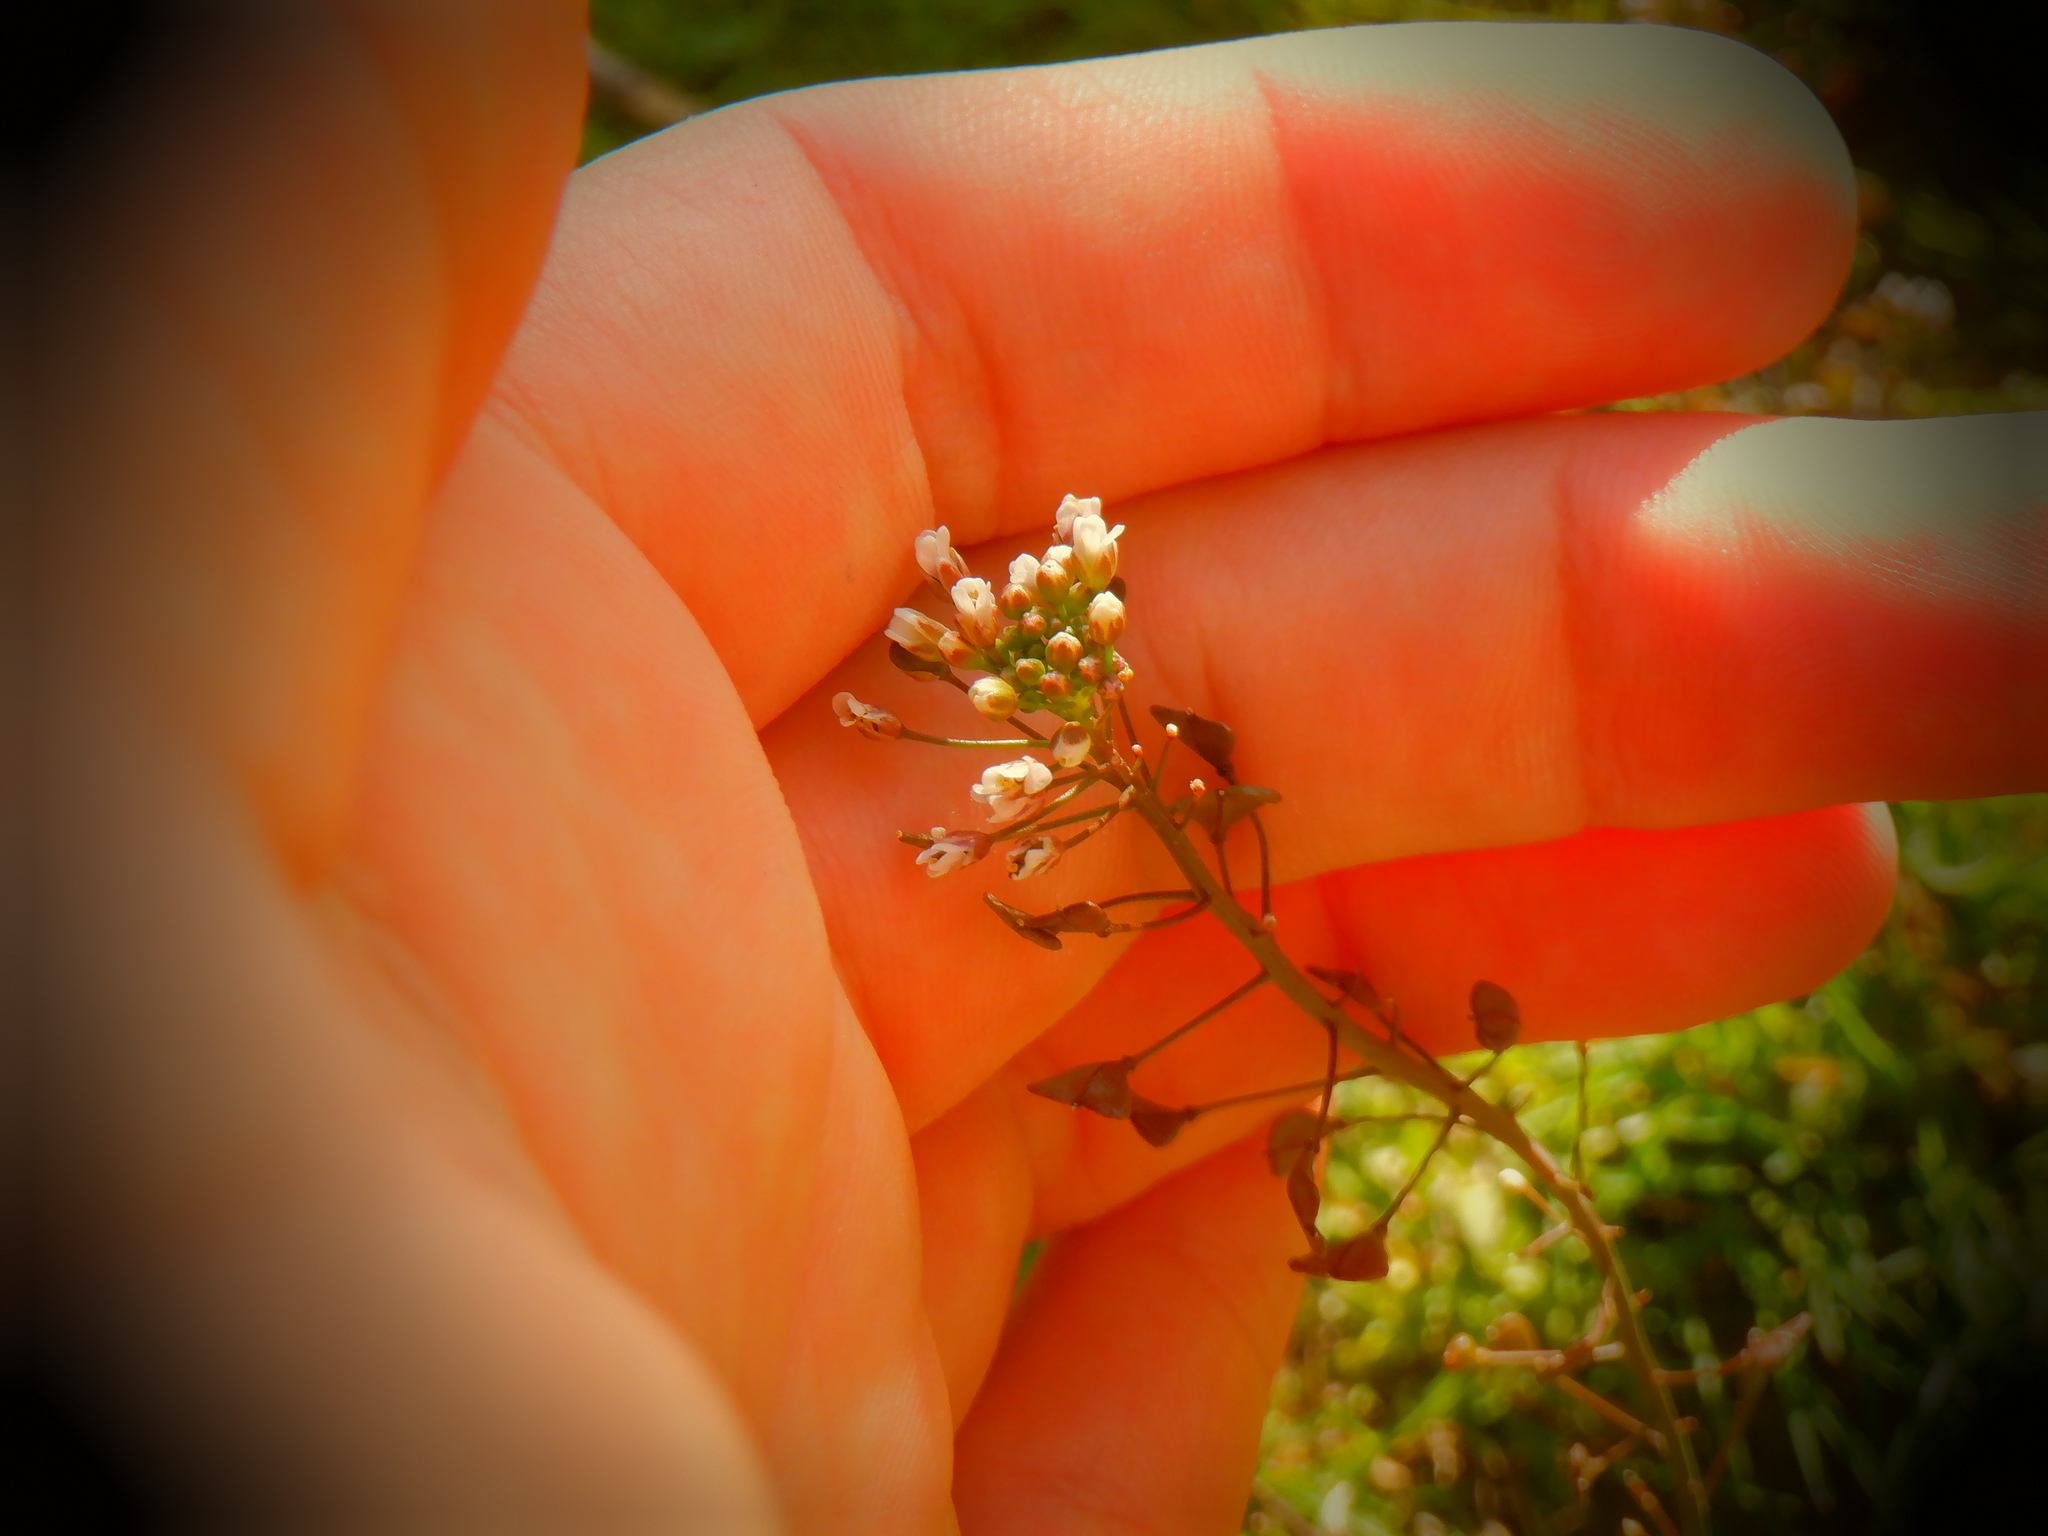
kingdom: Plantae
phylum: Tracheophyta
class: Magnoliopsida
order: Brassicales
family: Brassicaceae
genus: Capsella
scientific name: Capsella bursa-pastoris
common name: Shepherd's purse
